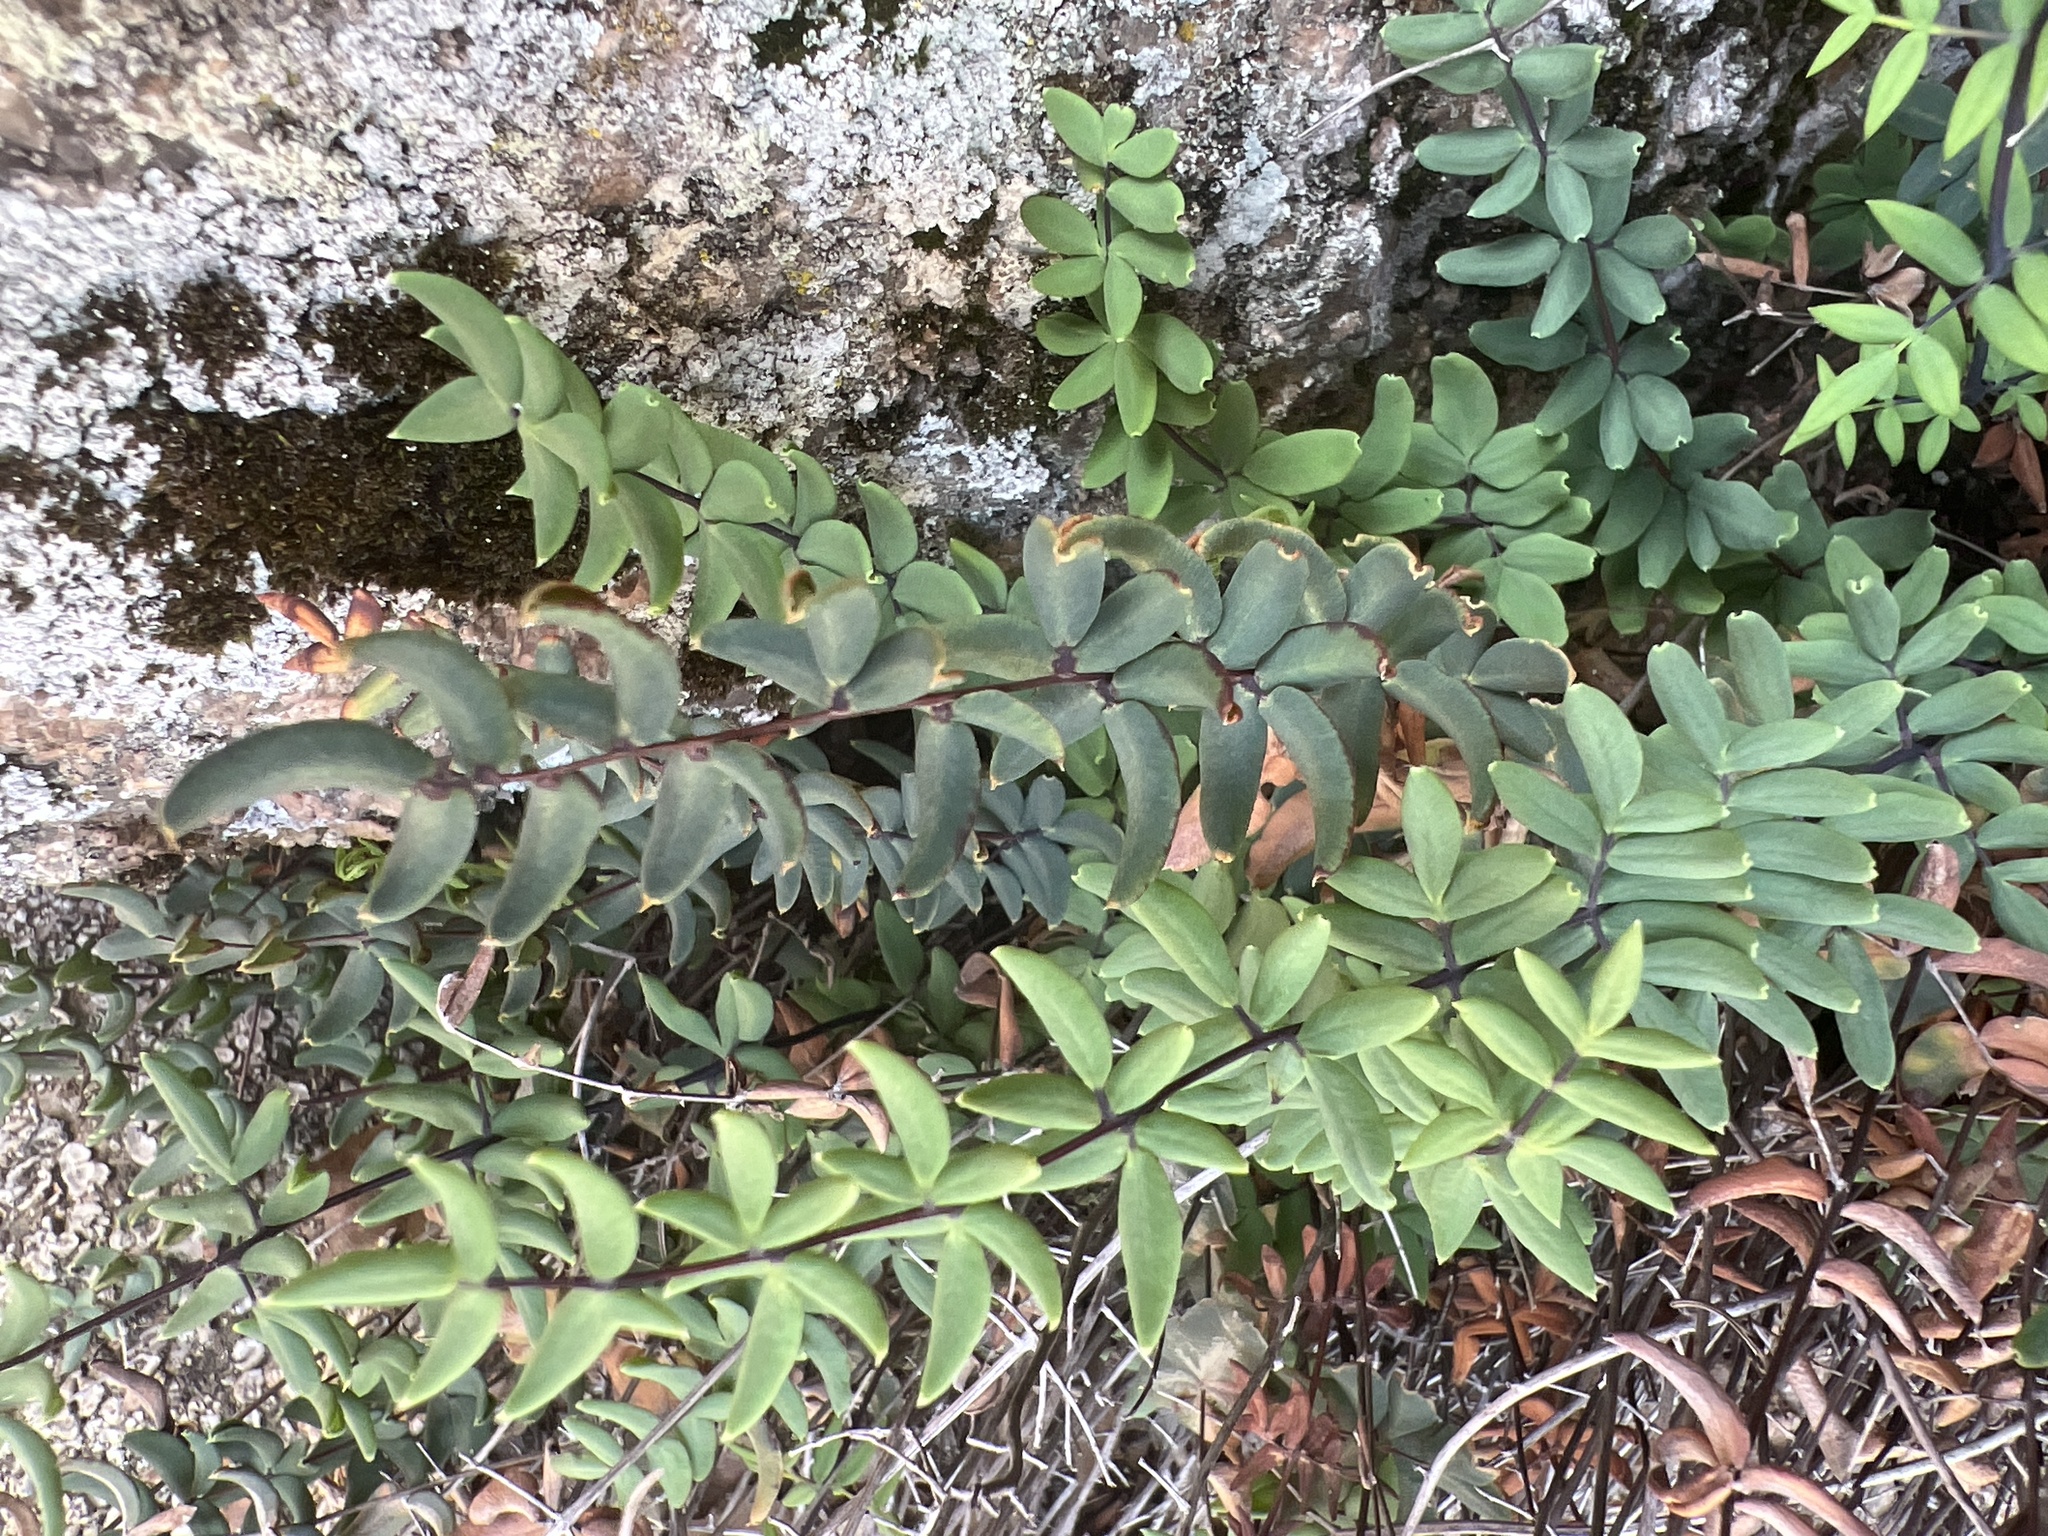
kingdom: Plantae
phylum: Tracheophyta
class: Polypodiopsida
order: Polypodiales
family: Pteridaceae
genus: Pellaea
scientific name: Pellaea wrightiana
